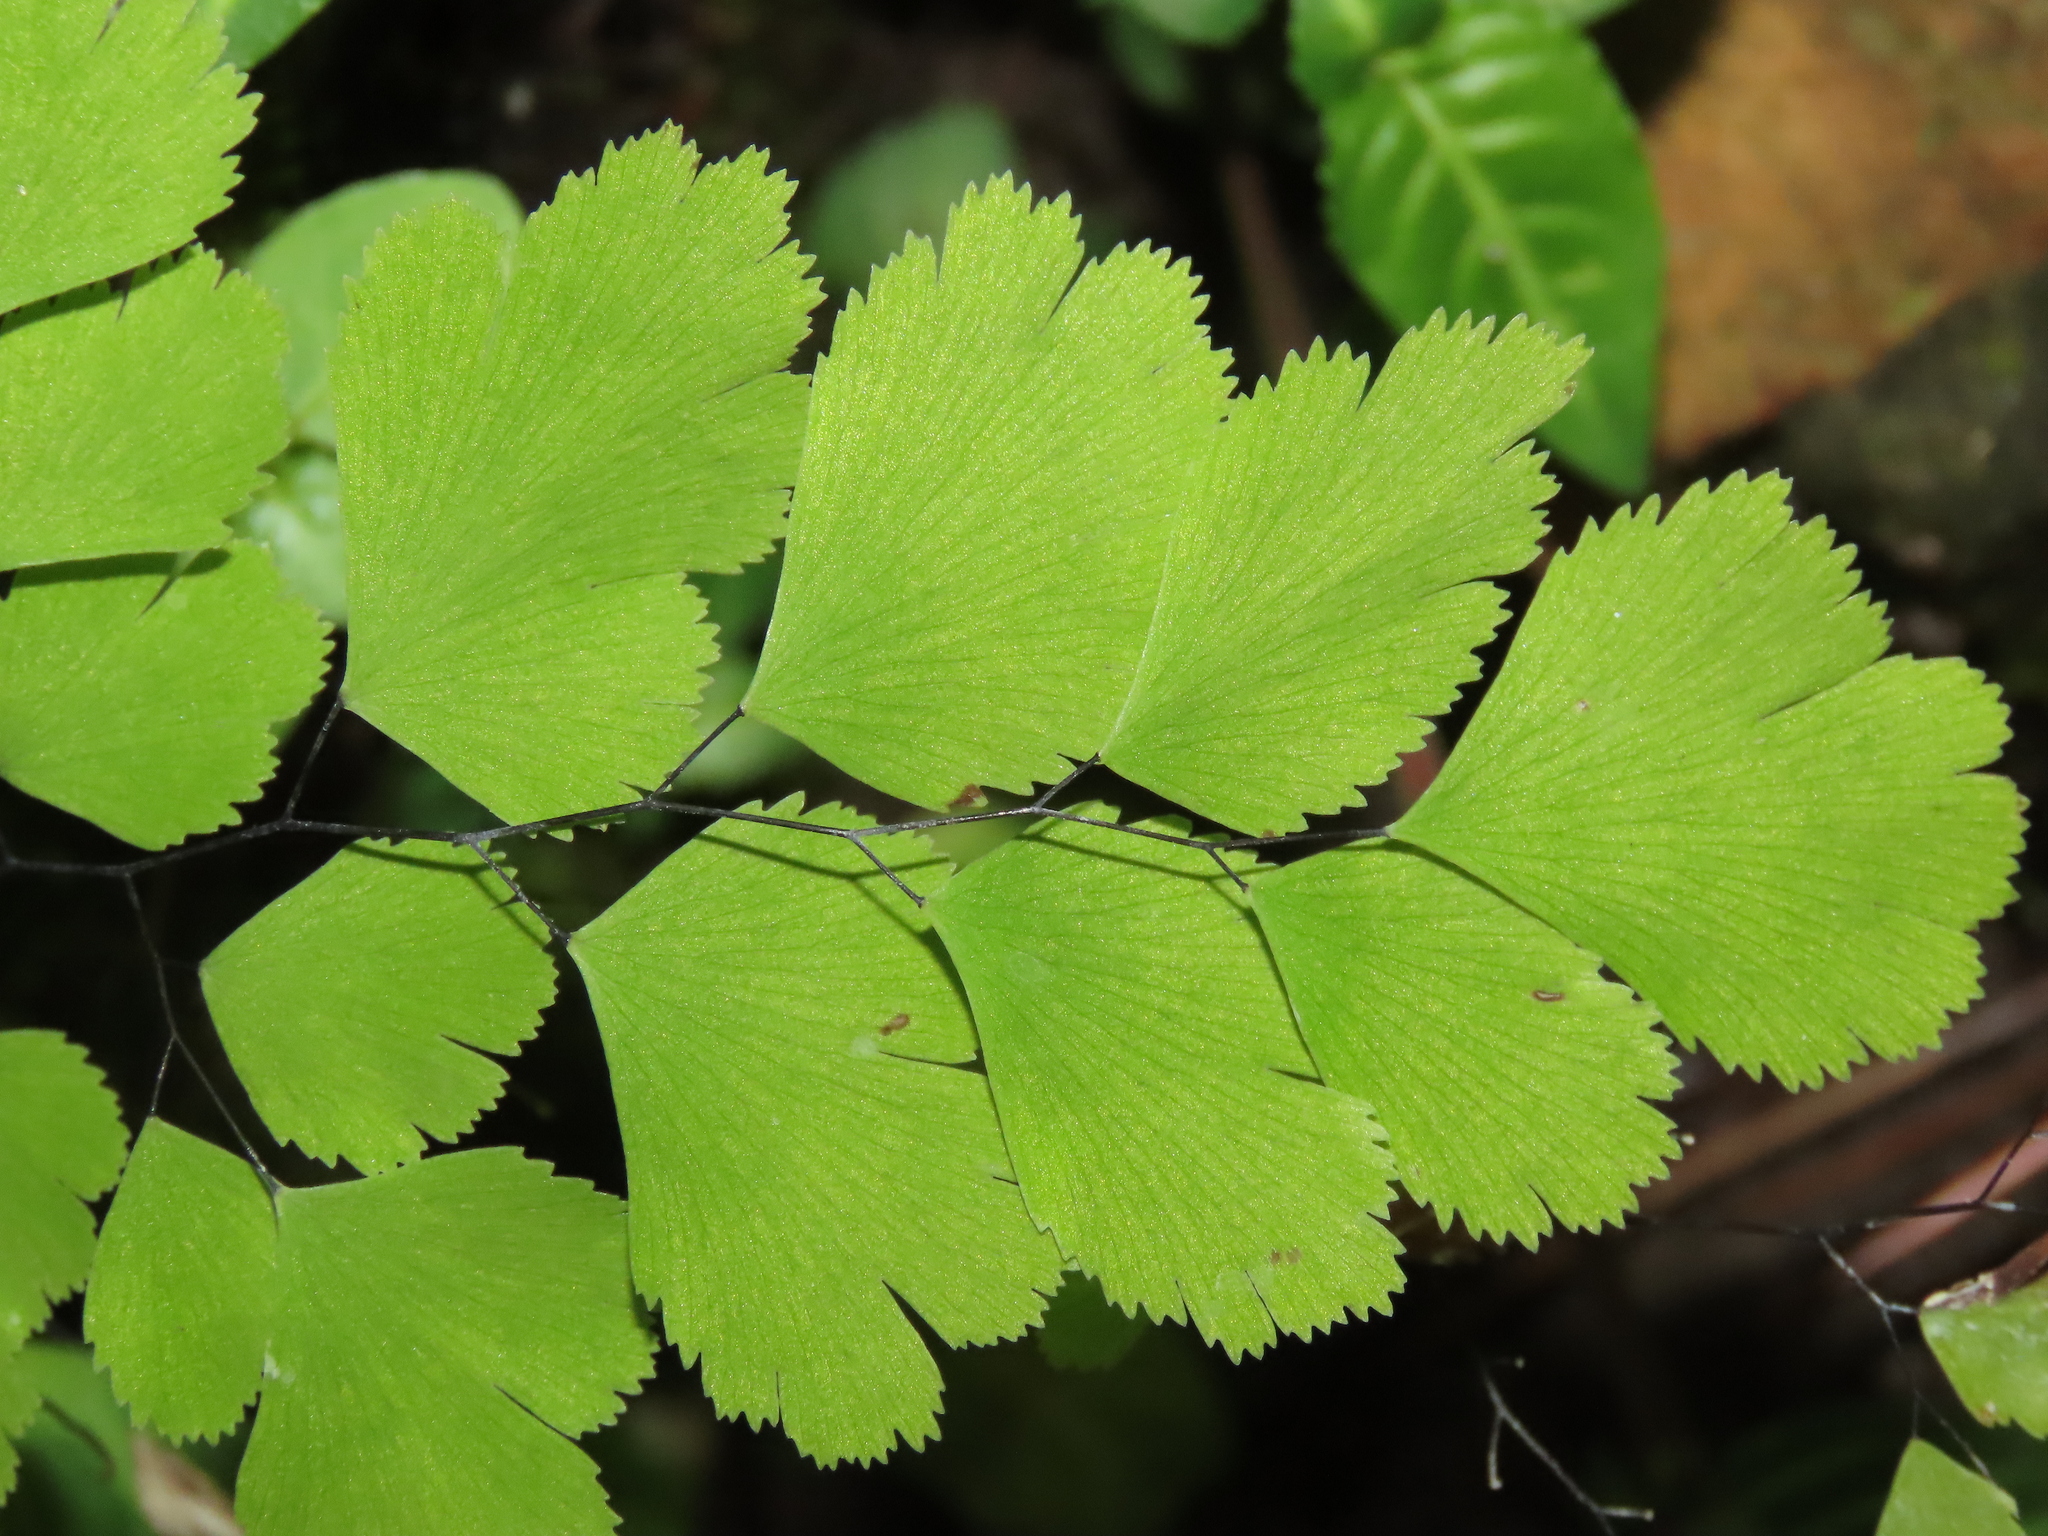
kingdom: Plantae
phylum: Tracheophyta
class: Polypodiopsida
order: Polypodiales
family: Pteridaceae
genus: Adiantum
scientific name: Adiantum tenerum
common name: Fan maidenhair
